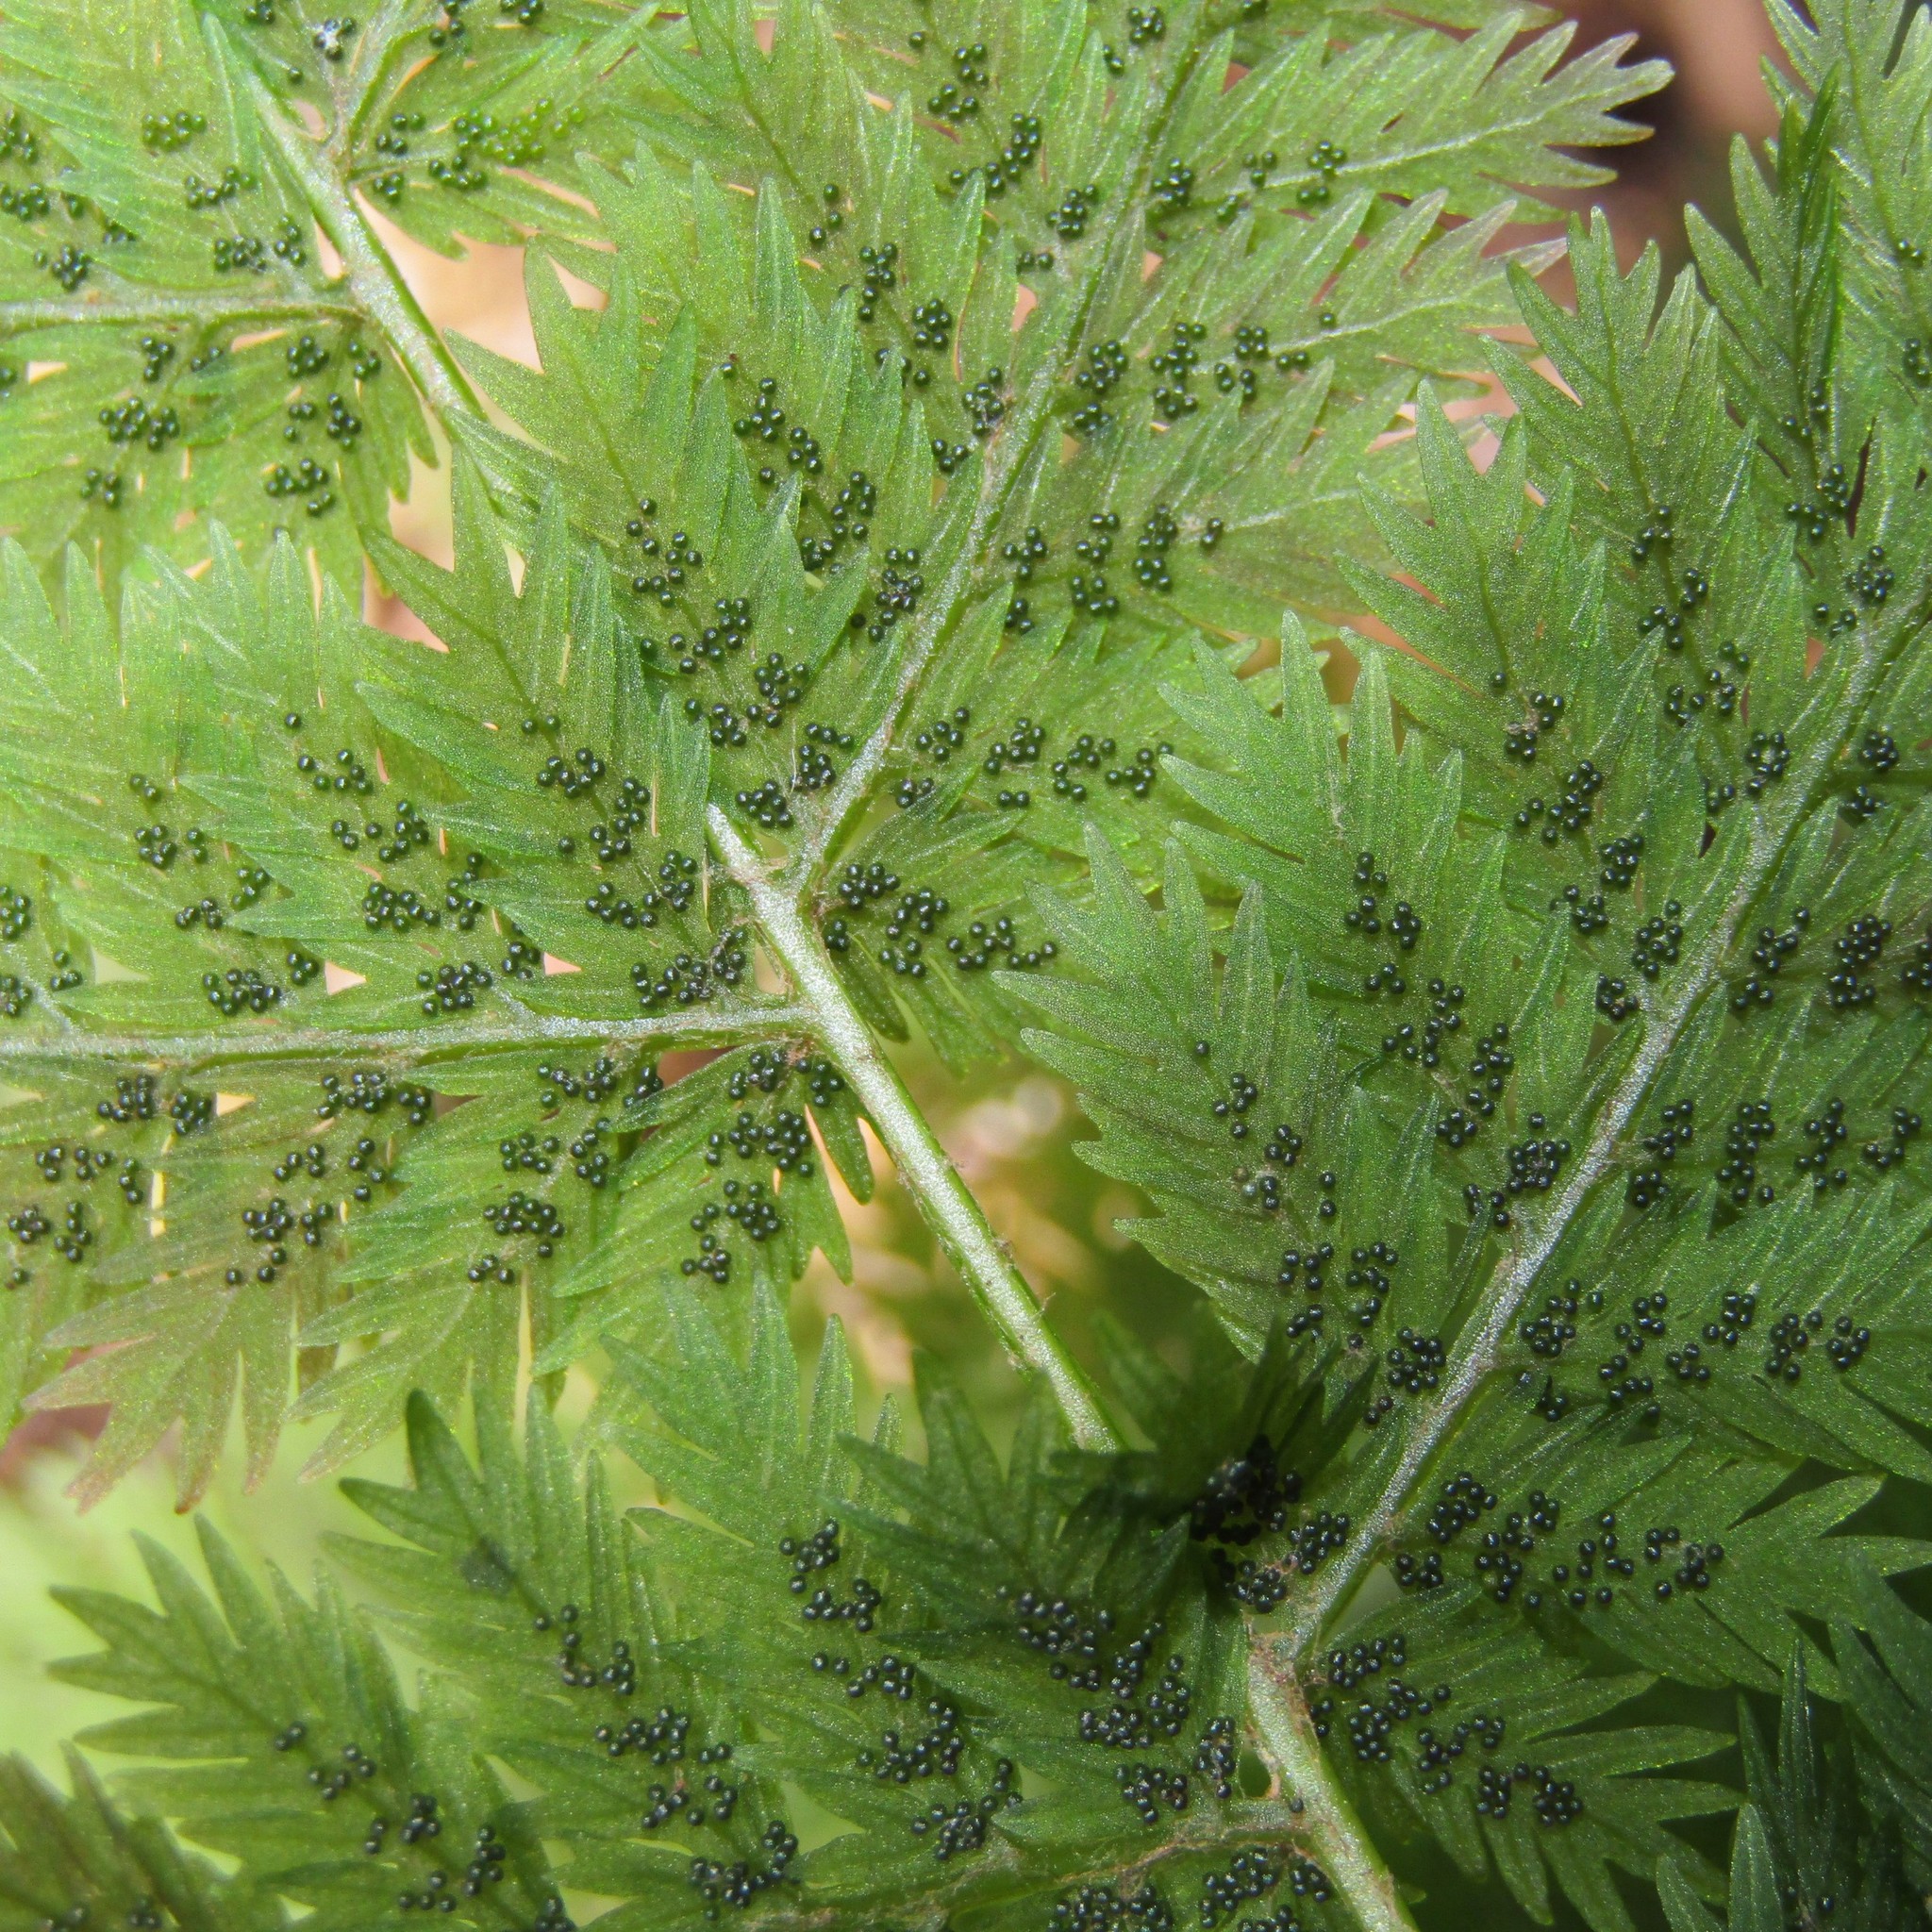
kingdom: Plantae
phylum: Tracheophyta
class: Polypodiopsida
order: Osmundales
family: Osmundaceae
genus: Leptopteris
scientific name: Leptopteris hymenophylloides
